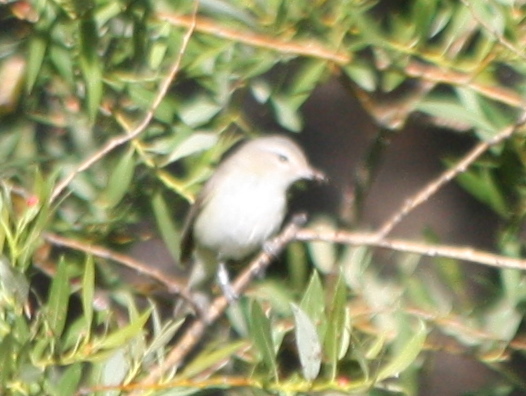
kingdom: Animalia
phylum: Chordata
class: Aves
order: Passeriformes
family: Vireonidae
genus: Vireo
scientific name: Vireo gilvus
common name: Warbling vireo
